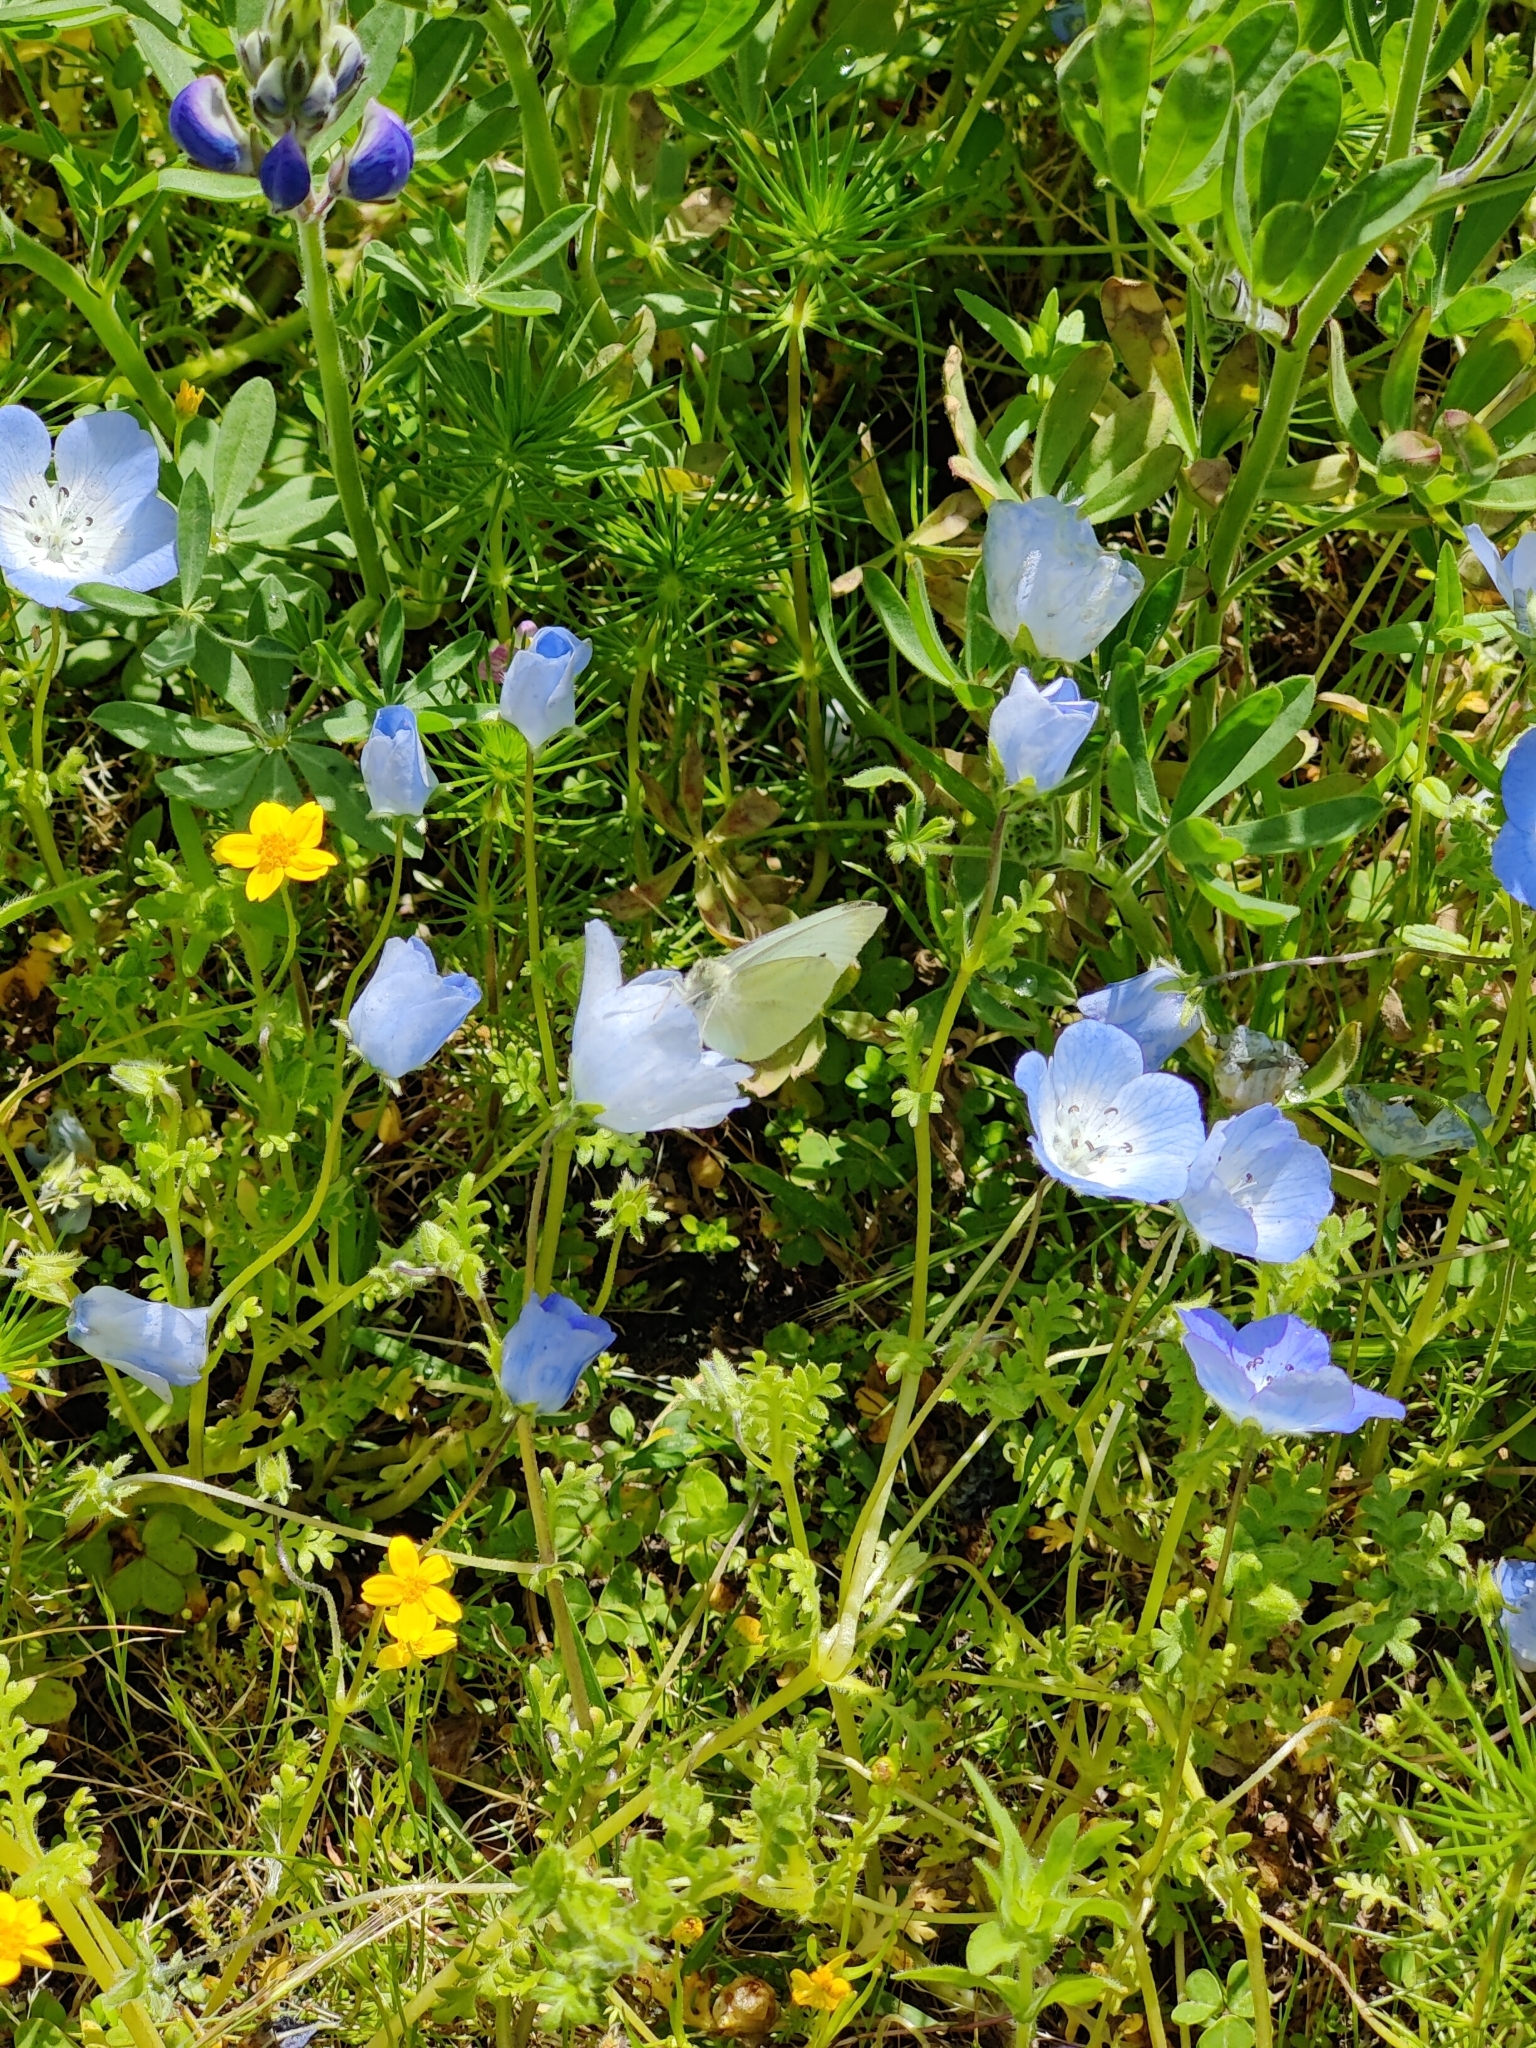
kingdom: Animalia
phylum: Arthropoda
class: Insecta
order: Lepidoptera
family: Pieridae
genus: Pieris
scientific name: Pieris rapae
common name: Small white
